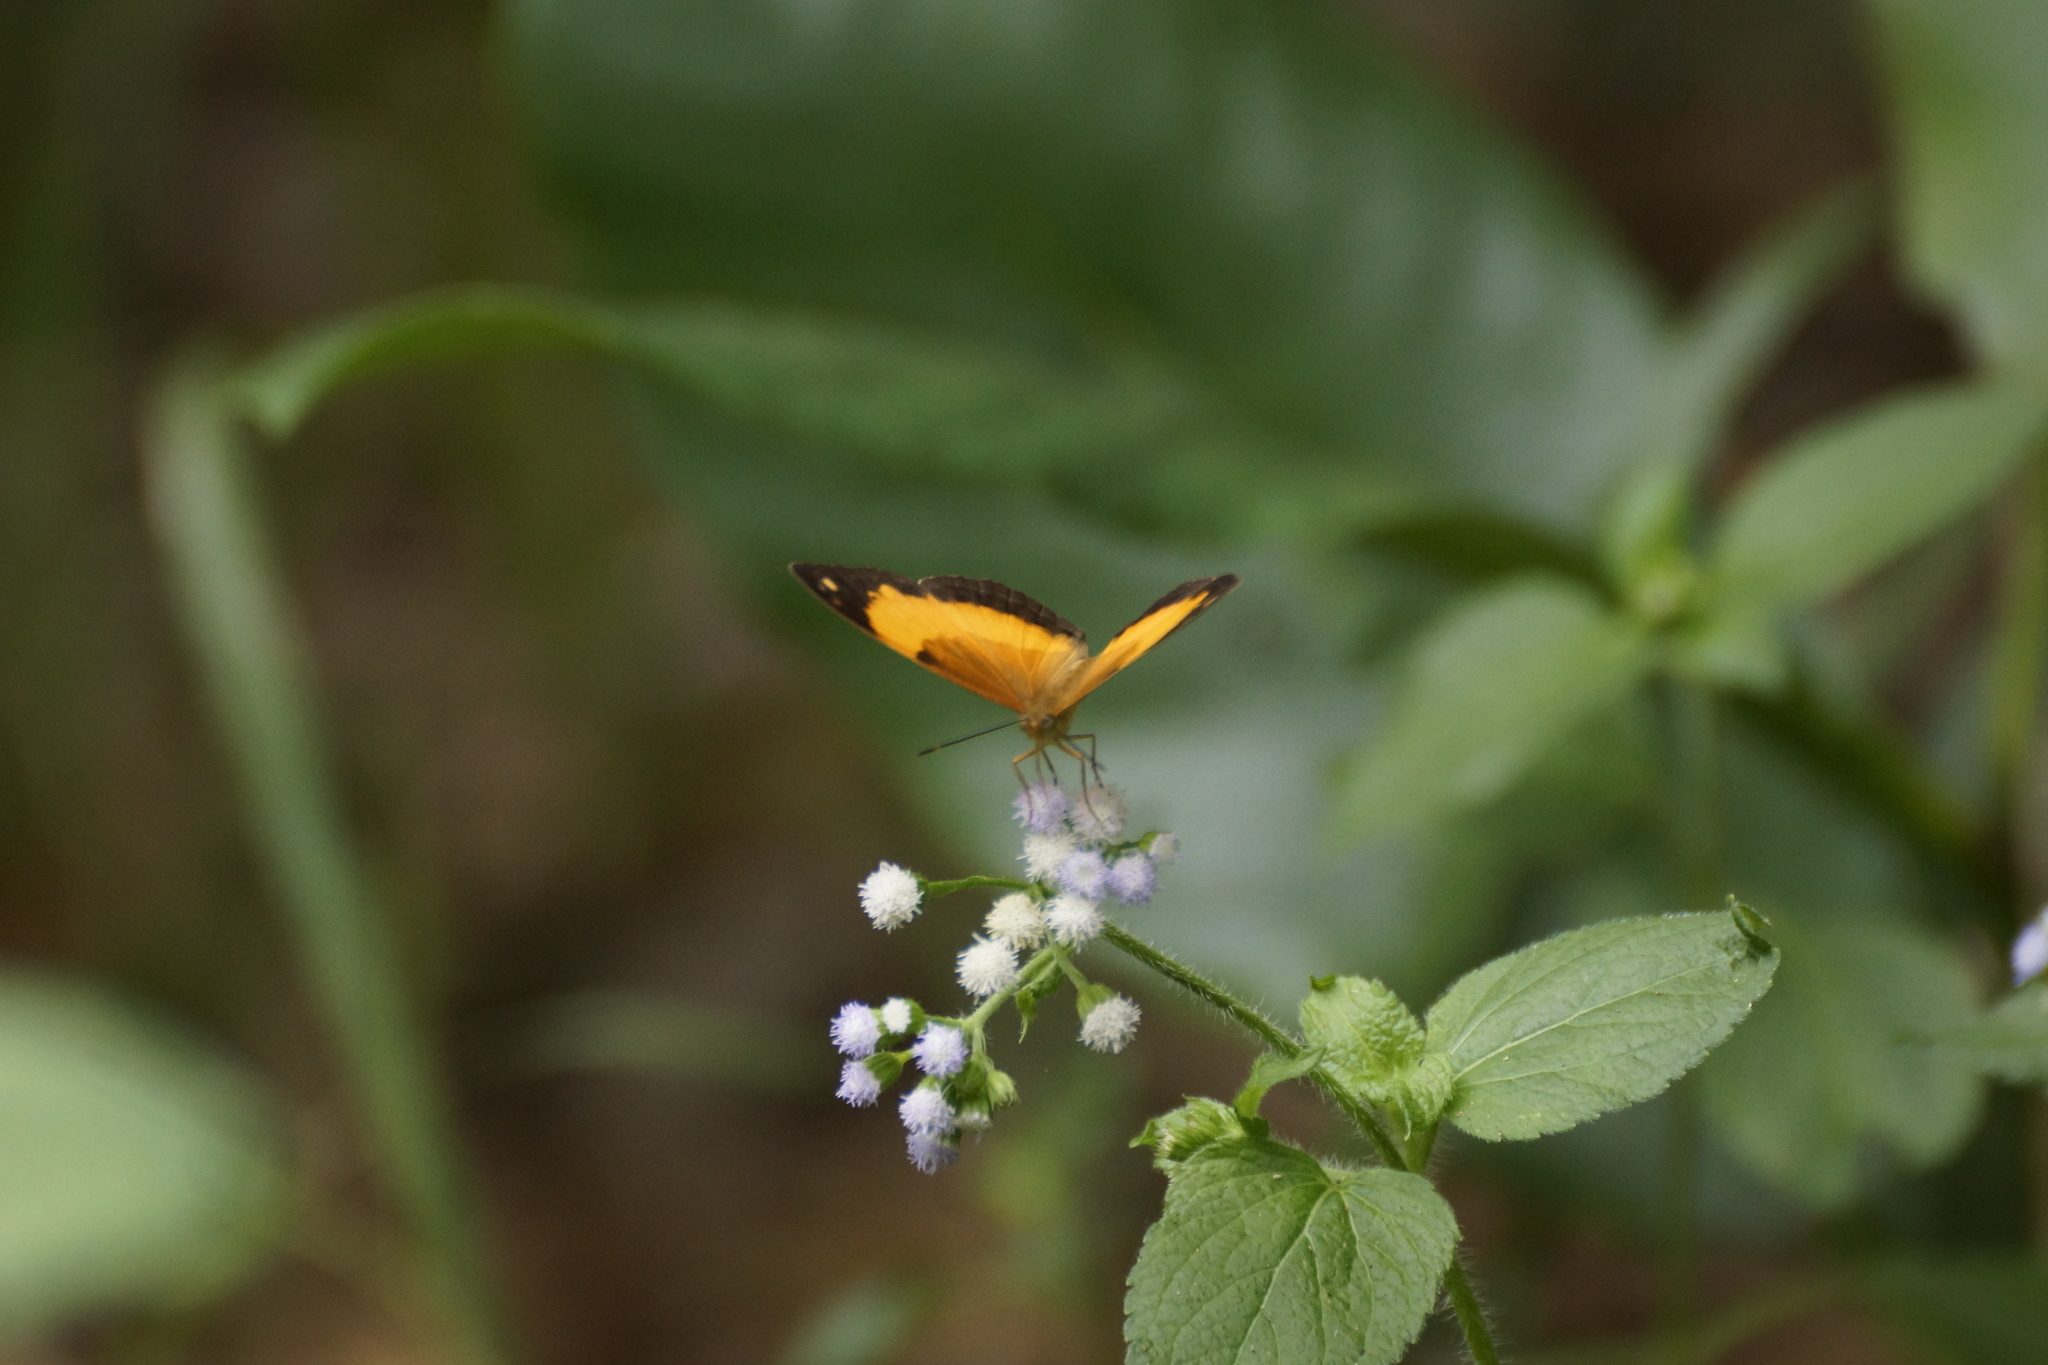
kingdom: Animalia
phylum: Arthropoda
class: Insecta
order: Lepidoptera
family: Nymphalidae
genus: Cupha
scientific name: Cupha prosope
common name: Bordered rustic
